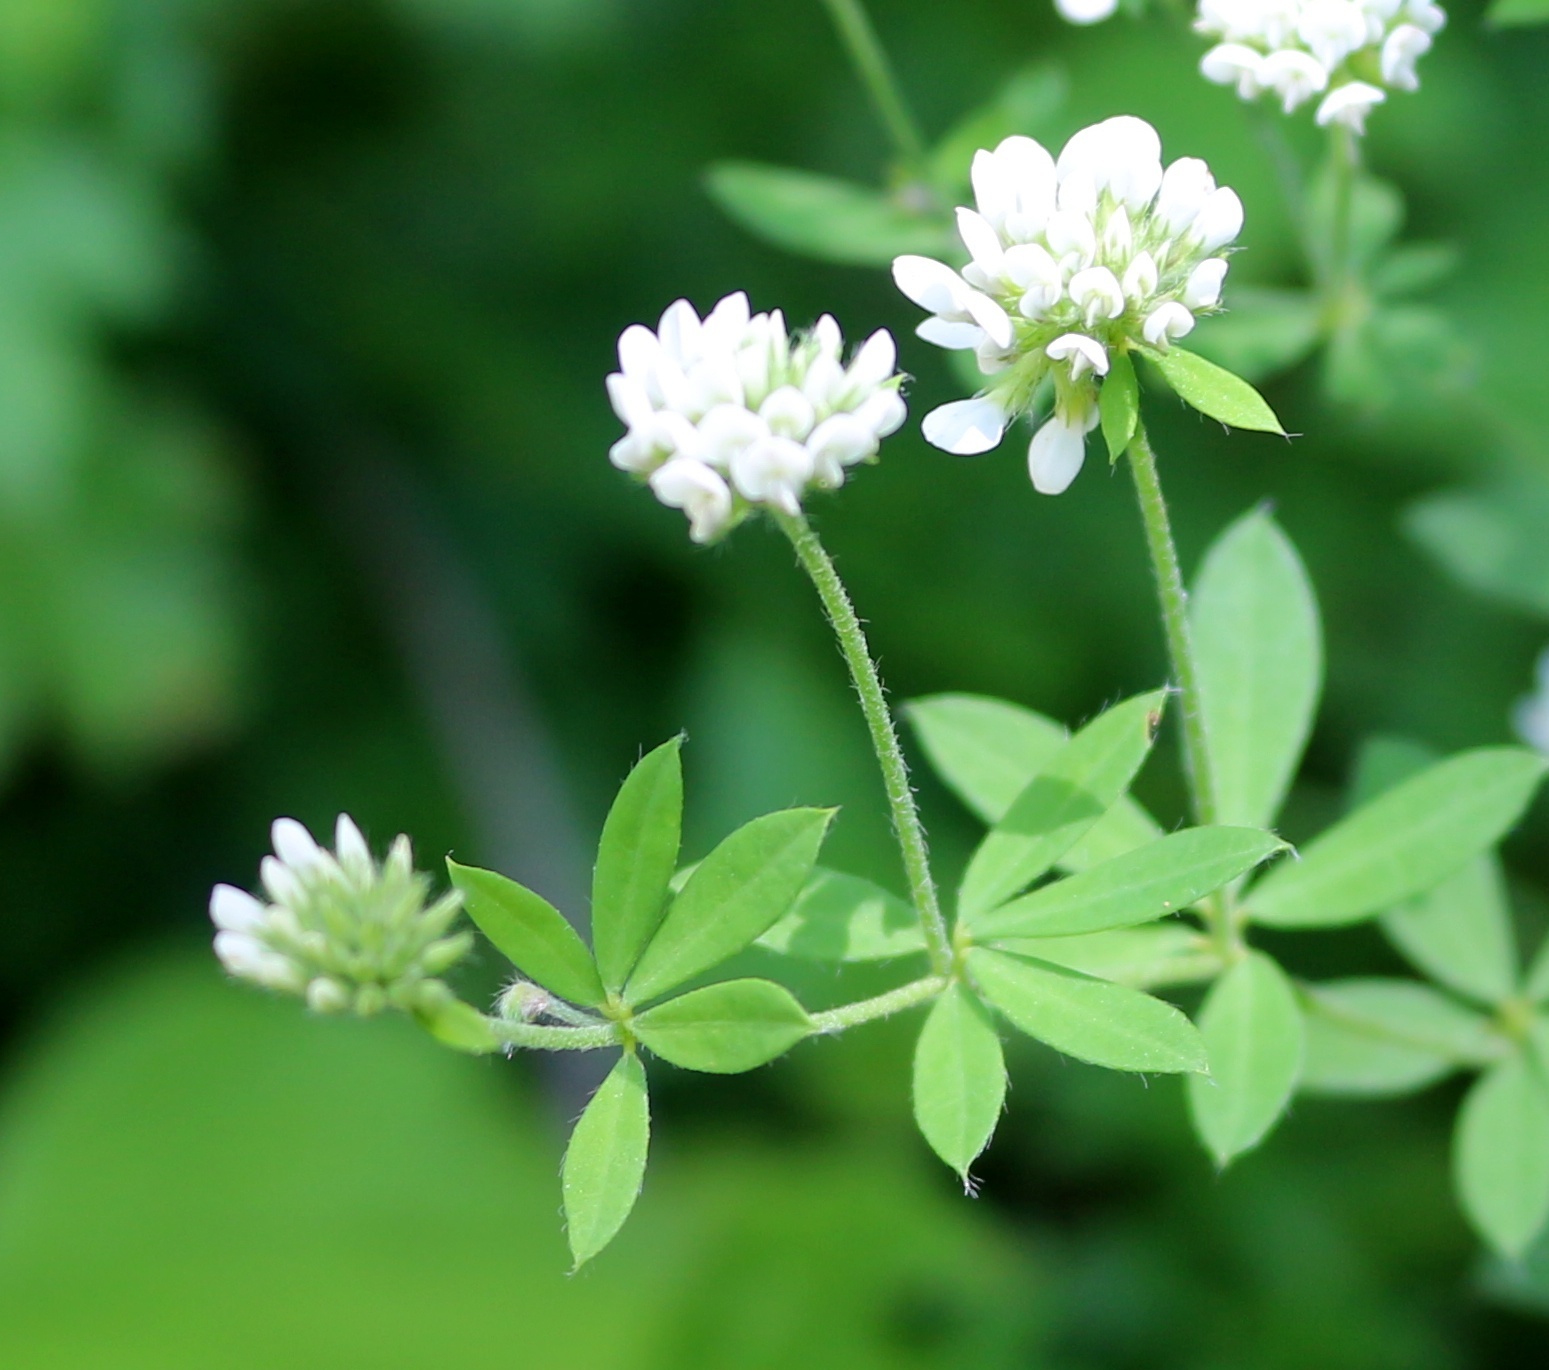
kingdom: Plantae
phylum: Tracheophyta
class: Magnoliopsida
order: Fabales
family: Fabaceae
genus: Lotus
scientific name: Lotus graecus
